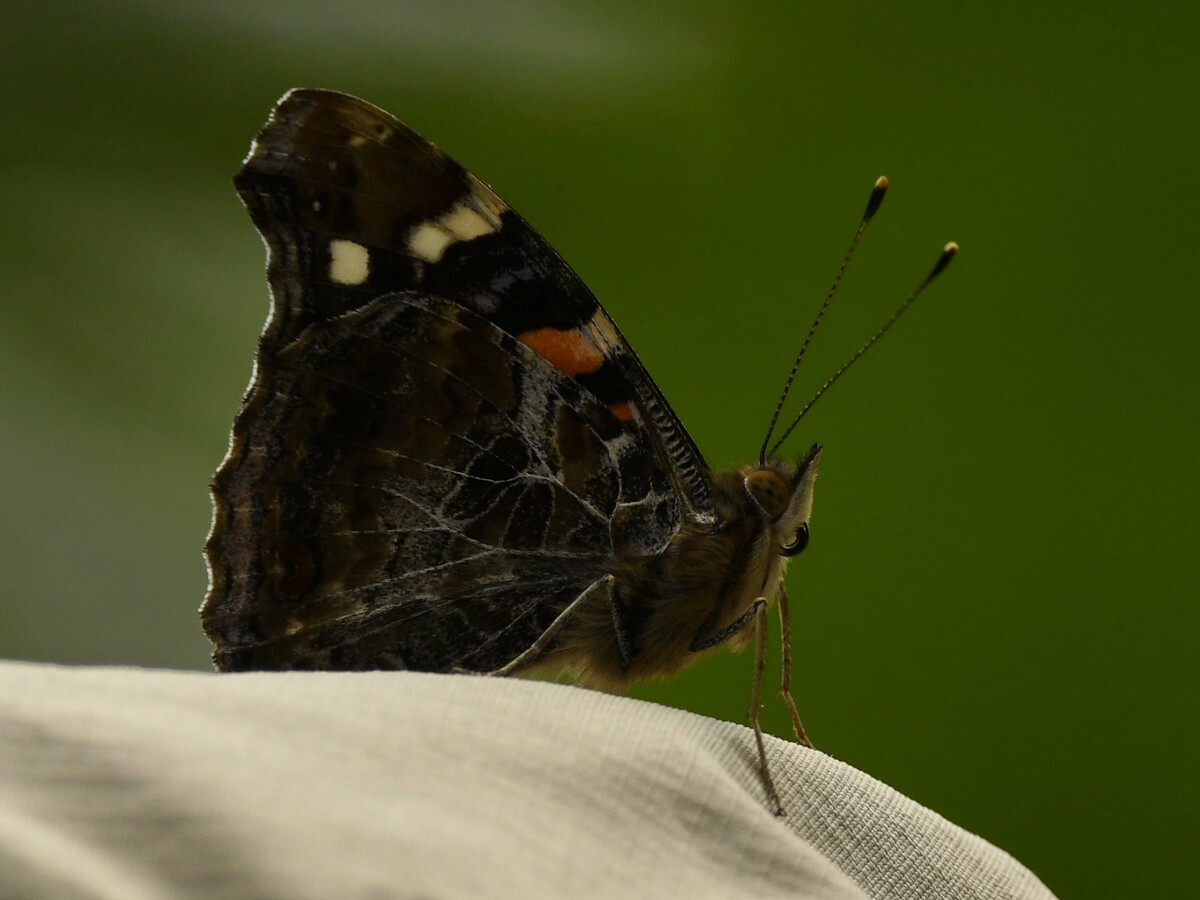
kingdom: Animalia
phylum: Arthropoda
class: Insecta
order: Lepidoptera
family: Nymphalidae
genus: Vanessa
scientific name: Vanessa indica
